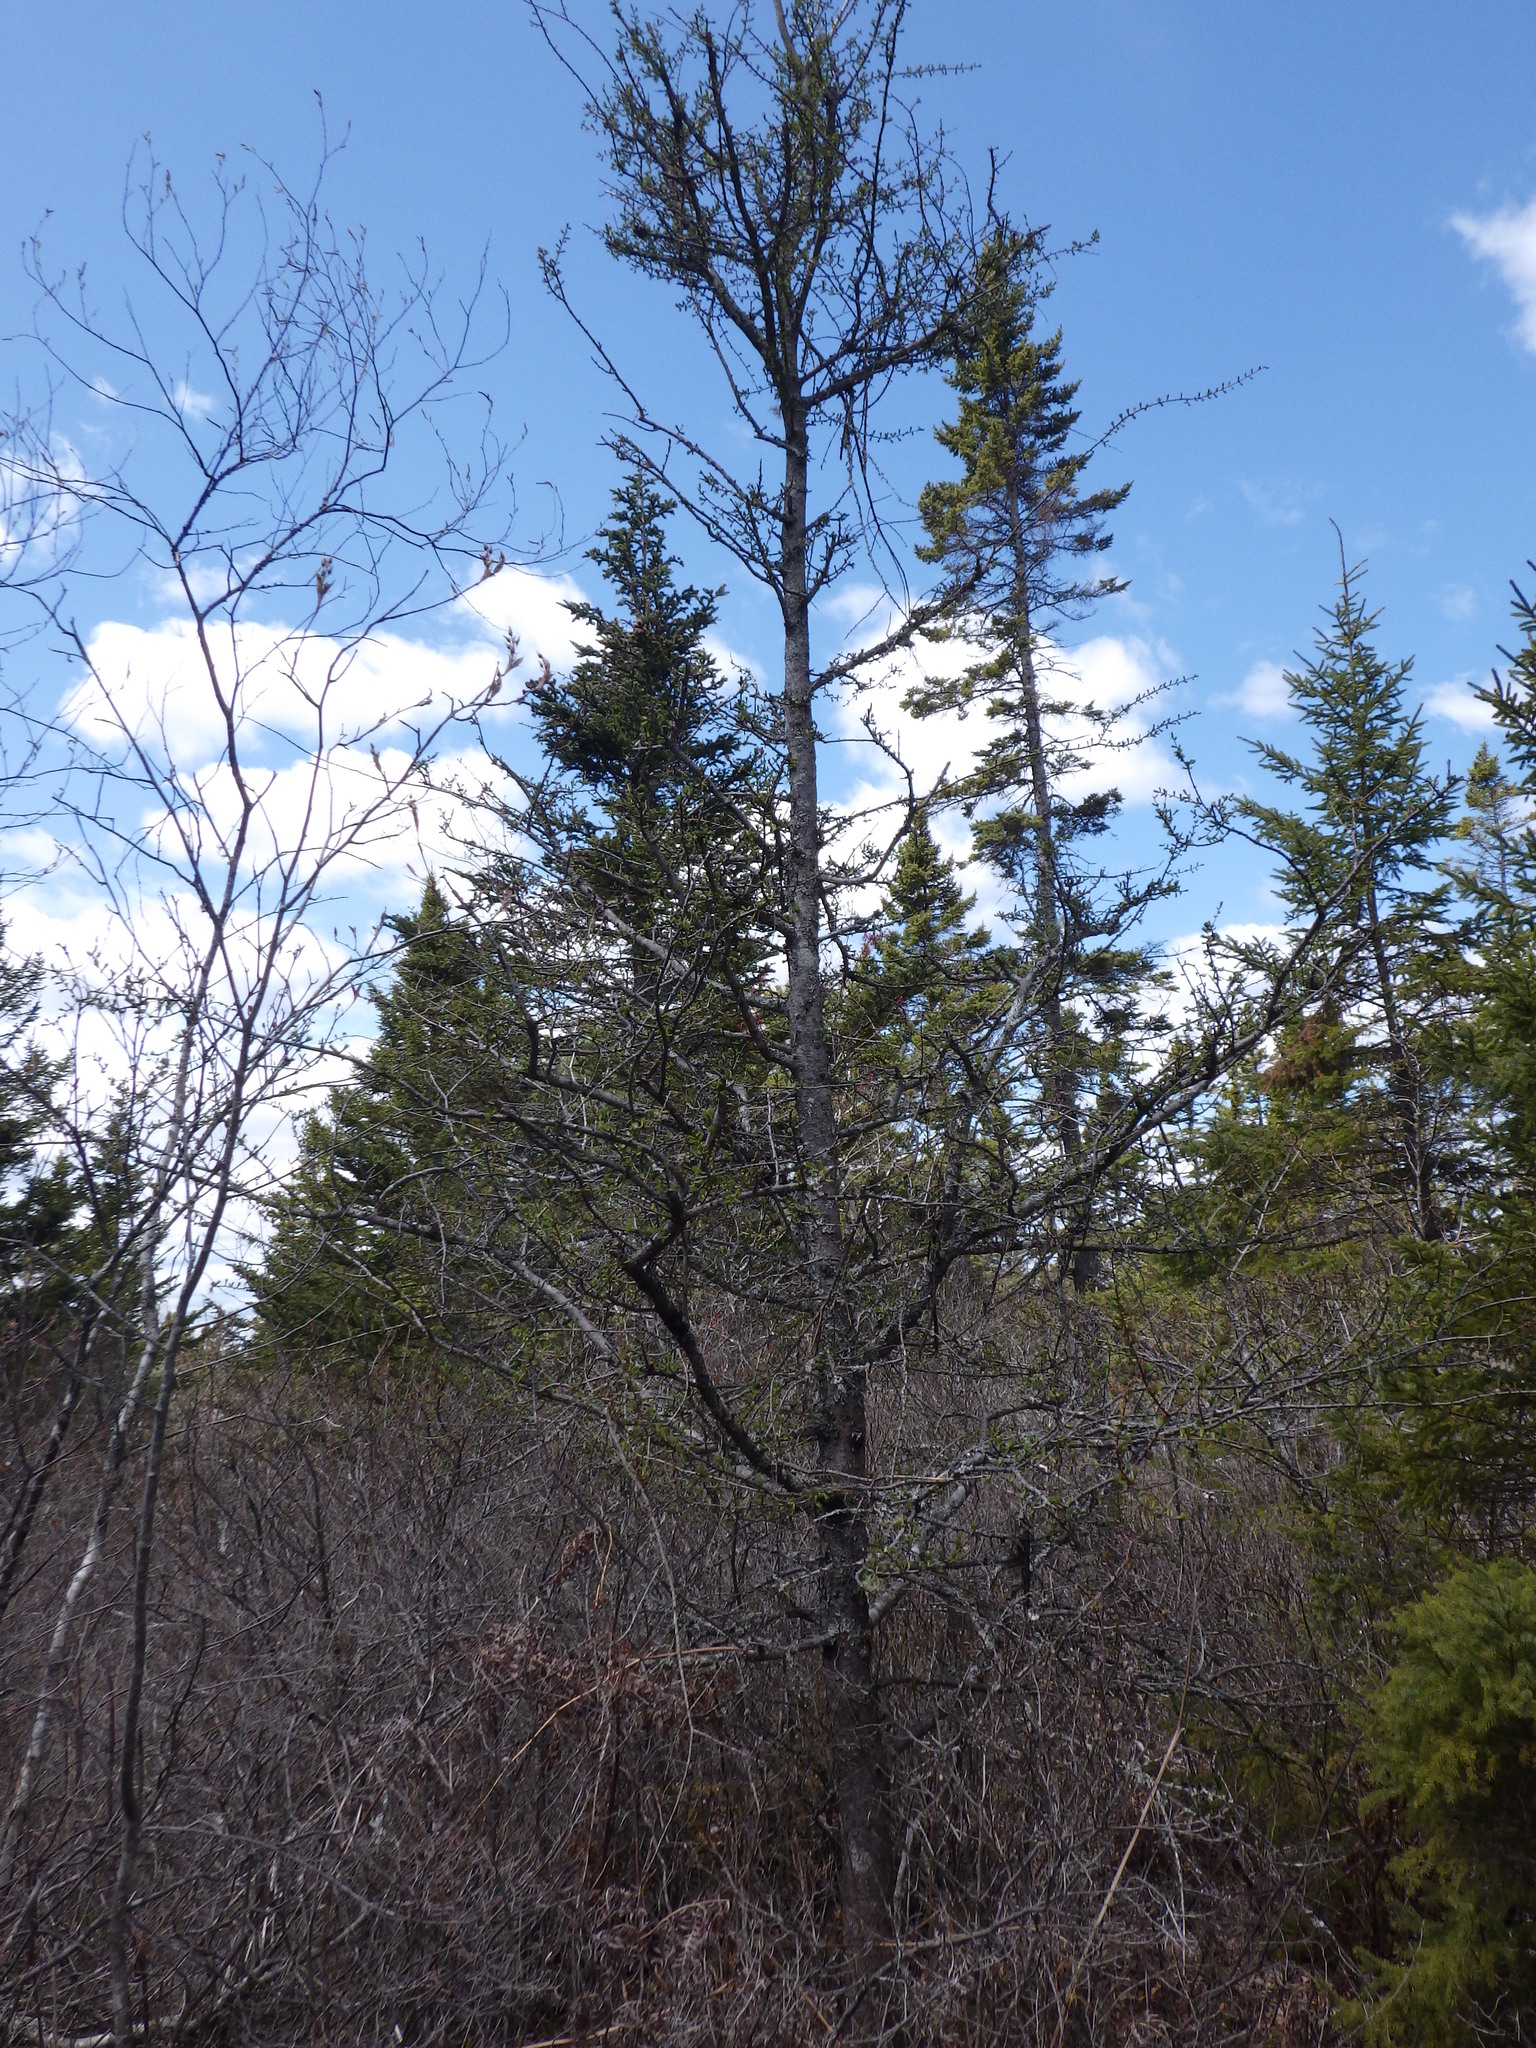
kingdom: Plantae
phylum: Tracheophyta
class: Pinopsida
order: Pinales
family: Pinaceae
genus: Larix
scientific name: Larix laricina
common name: American larch
